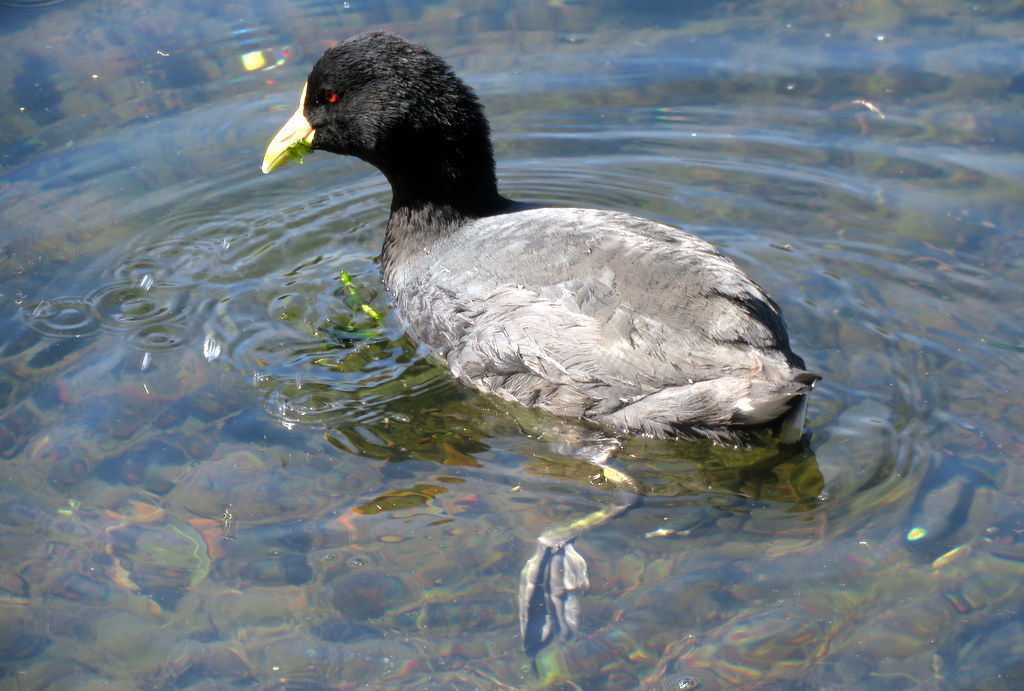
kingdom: Animalia
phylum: Chordata
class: Aves
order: Gruiformes
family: Rallidae
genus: Fulica
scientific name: Fulica leucoptera
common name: White-winged coot
